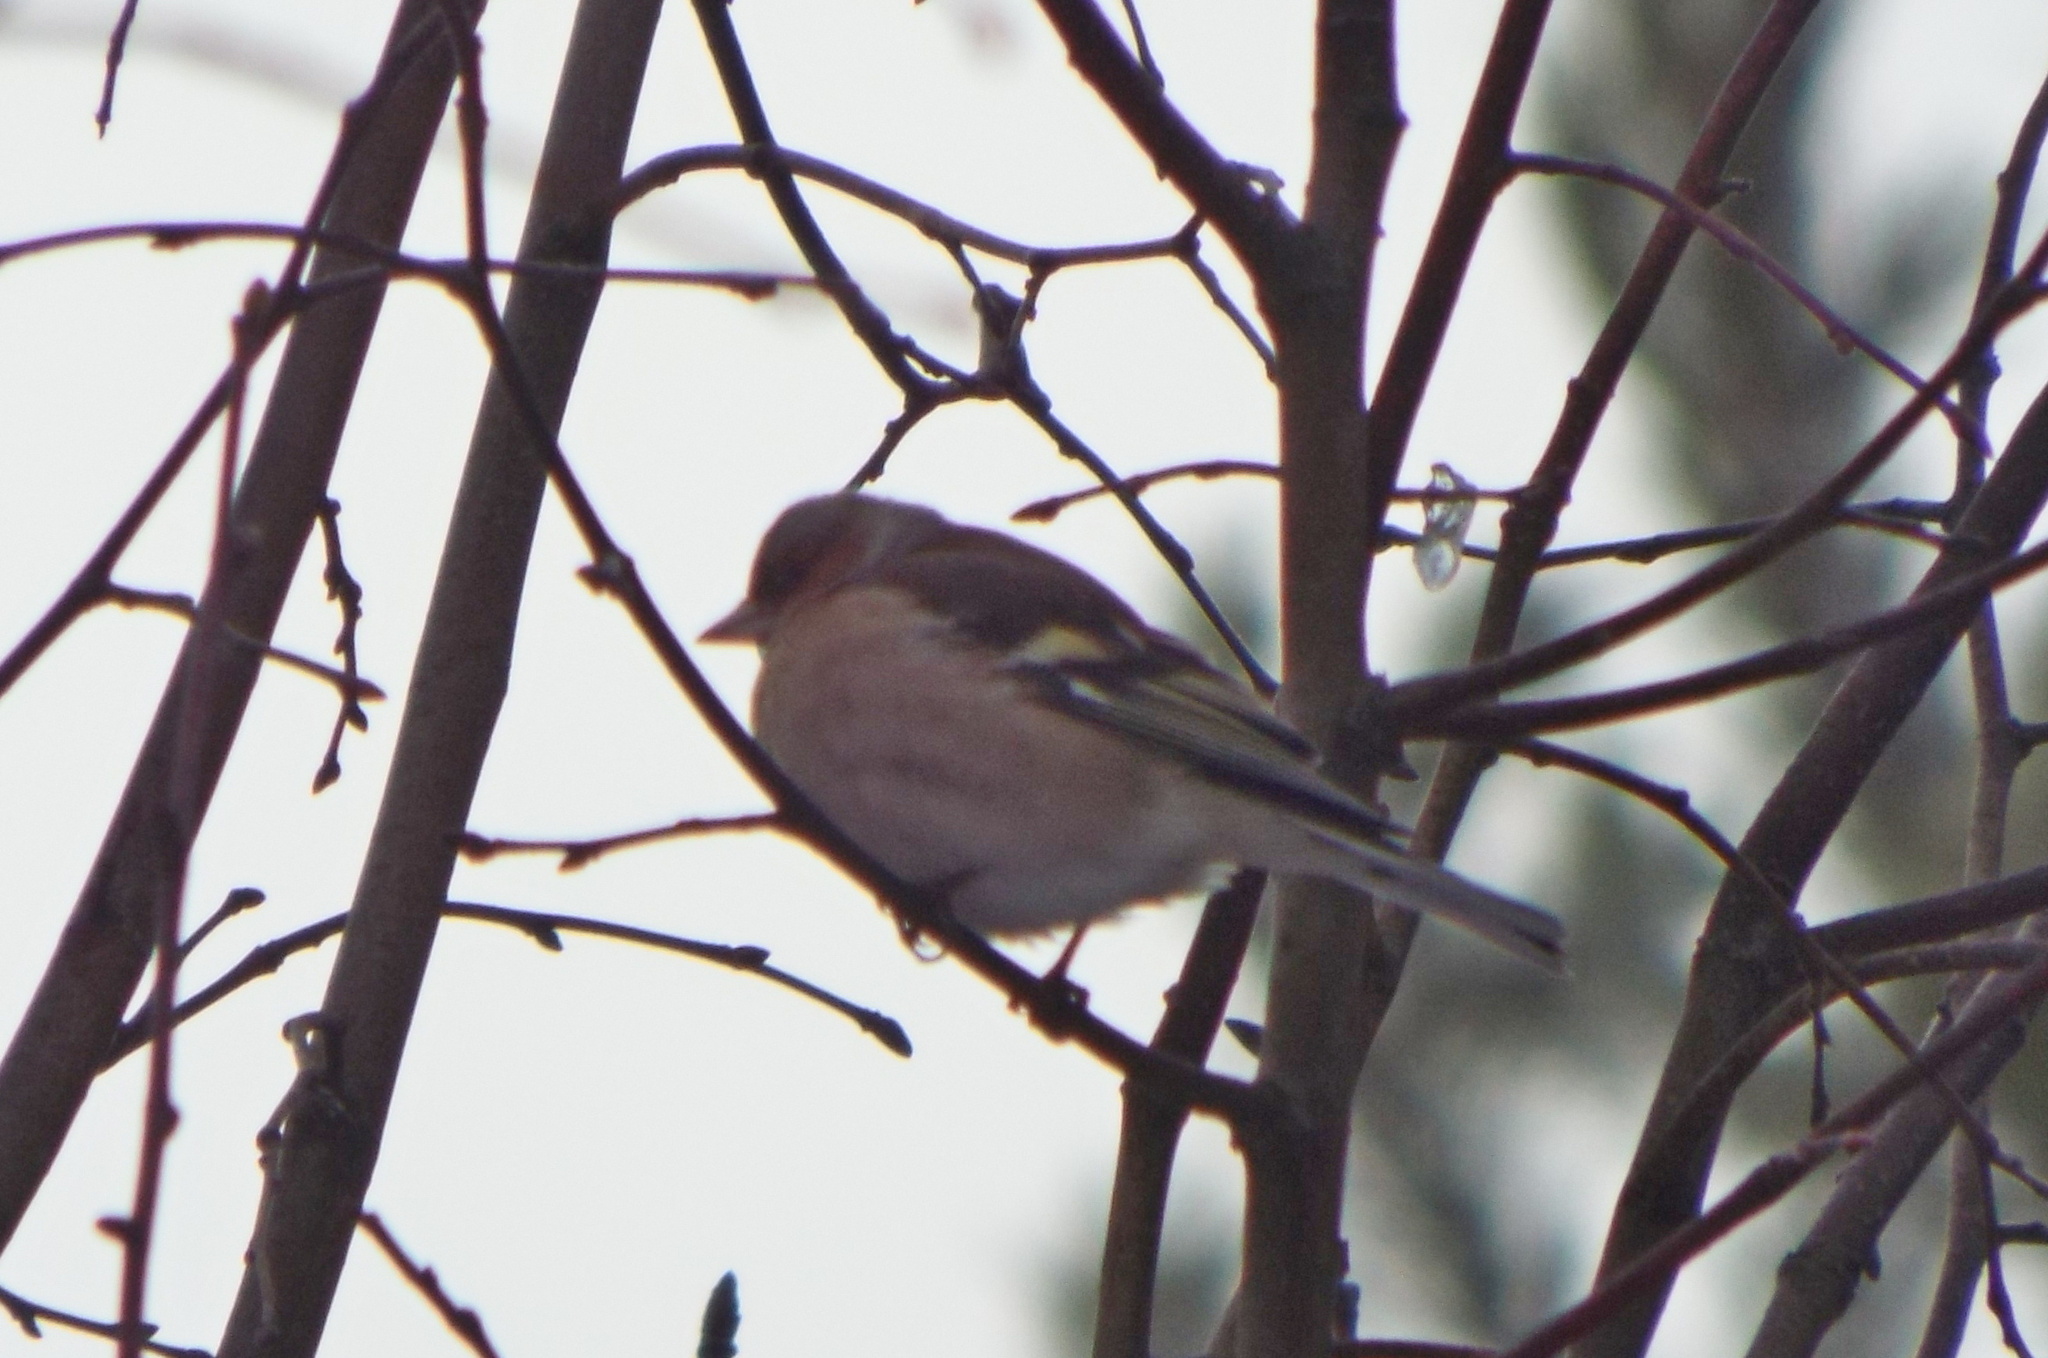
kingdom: Animalia
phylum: Chordata
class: Aves
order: Passeriformes
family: Fringillidae
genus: Fringilla
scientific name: Fringilla coelebs
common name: Common chaffinch
